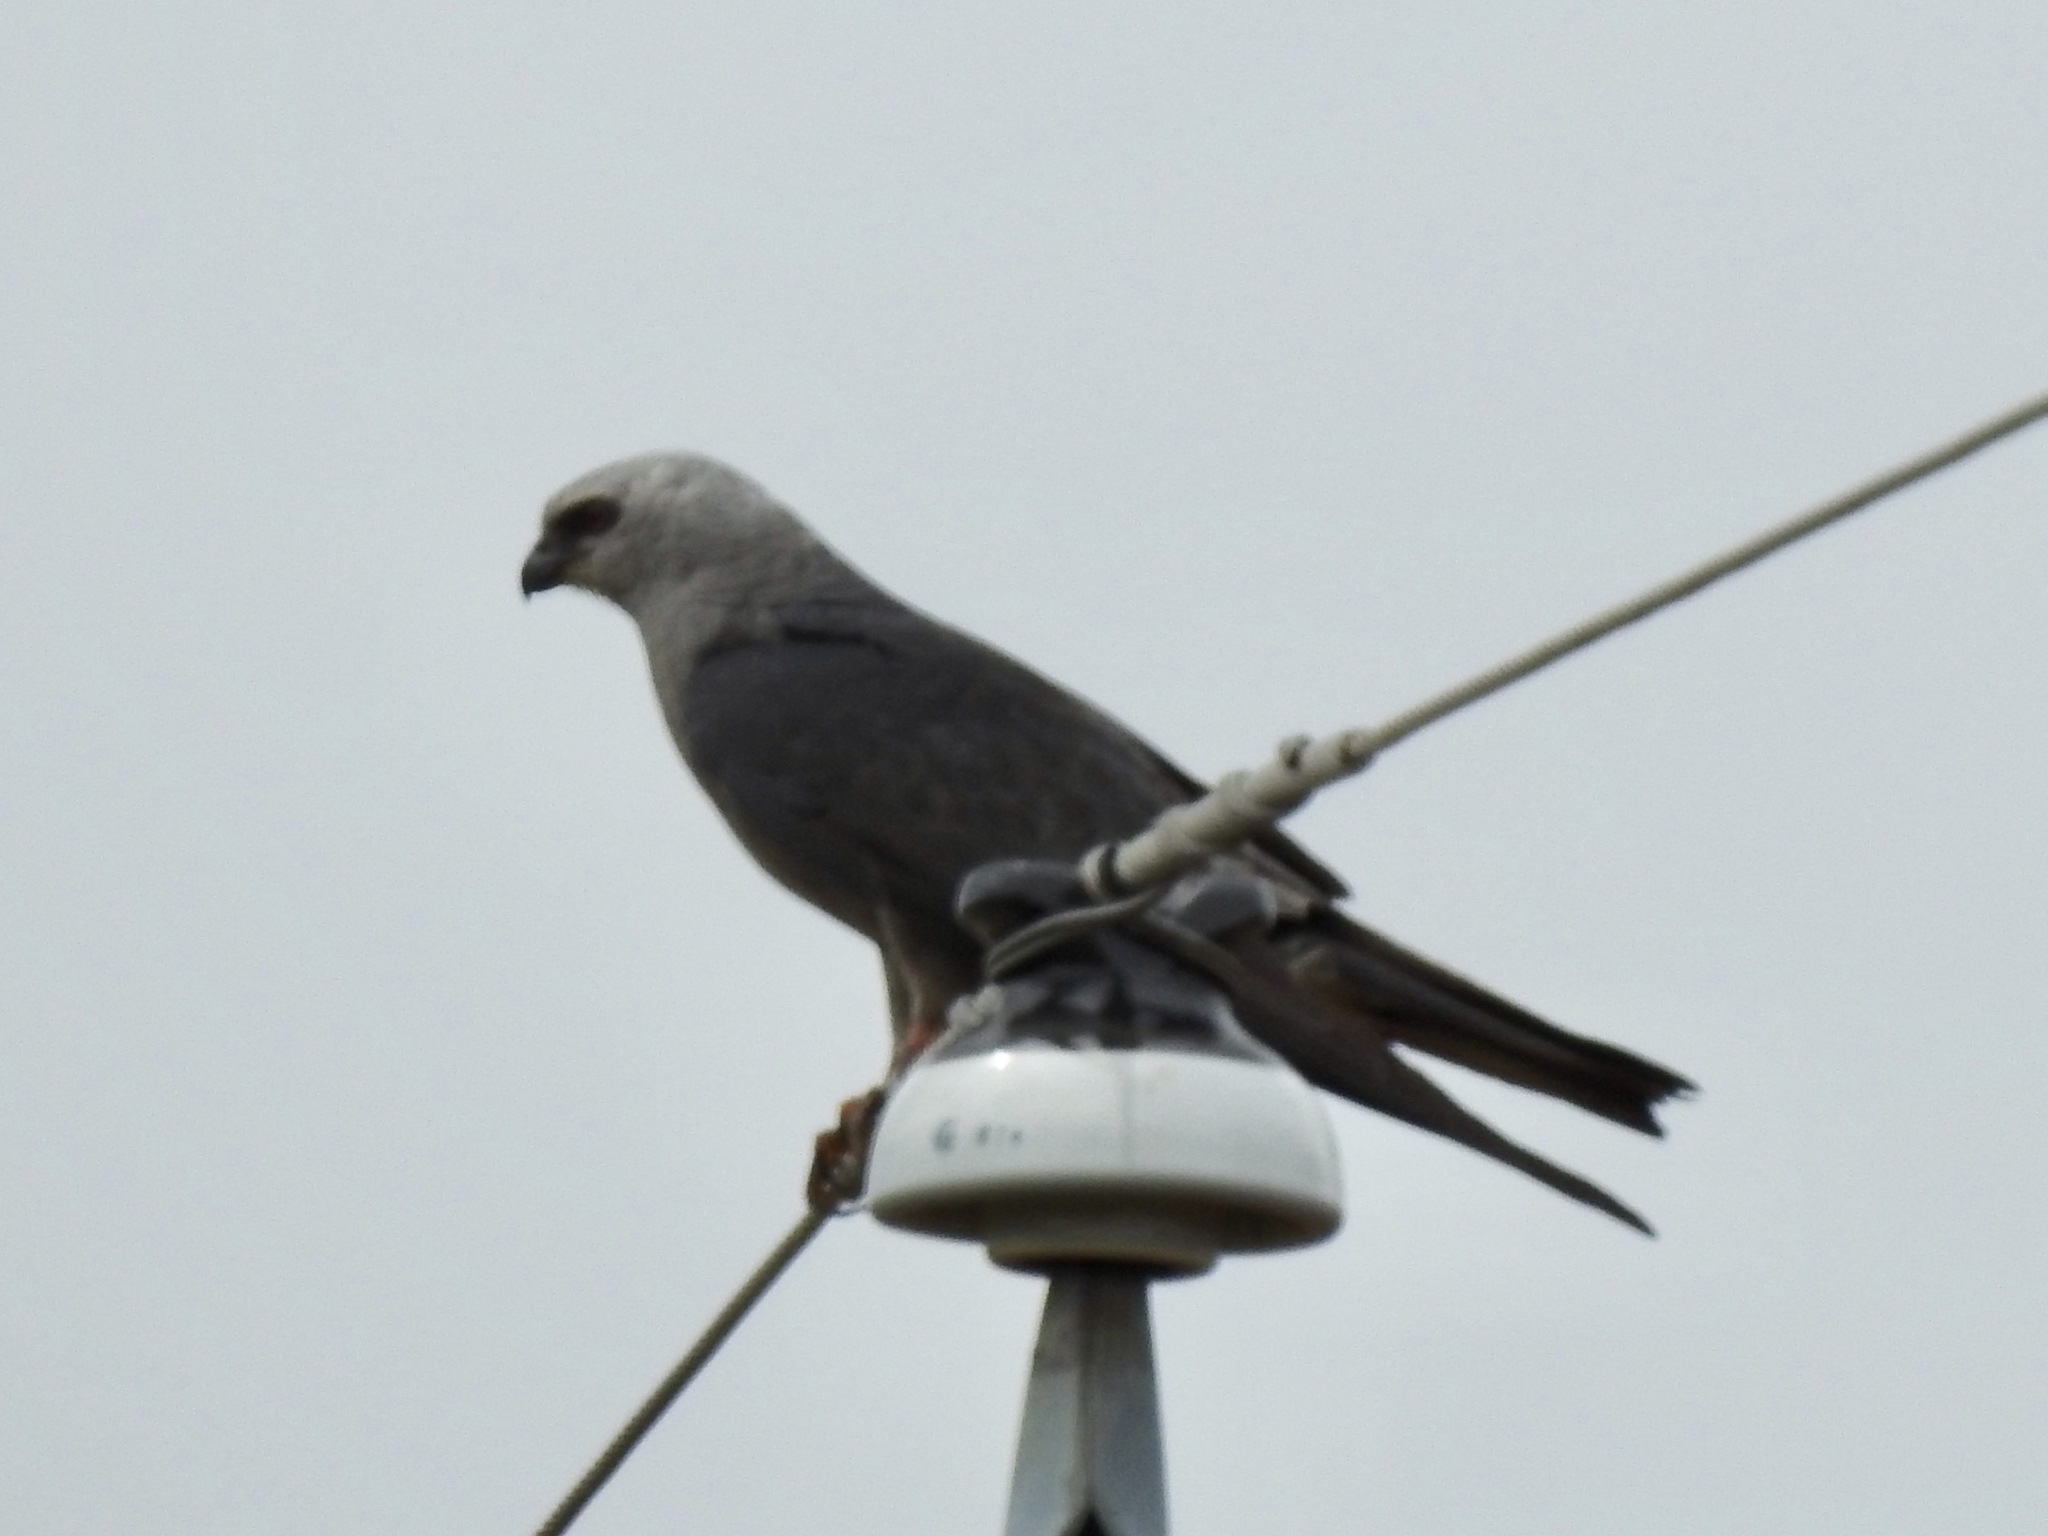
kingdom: Animalia
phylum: Chordata
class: Aves
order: Accipitriformes
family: Accipitridae
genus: Ictinia
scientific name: Ictinia mississippiensis
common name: Mississippi kite
